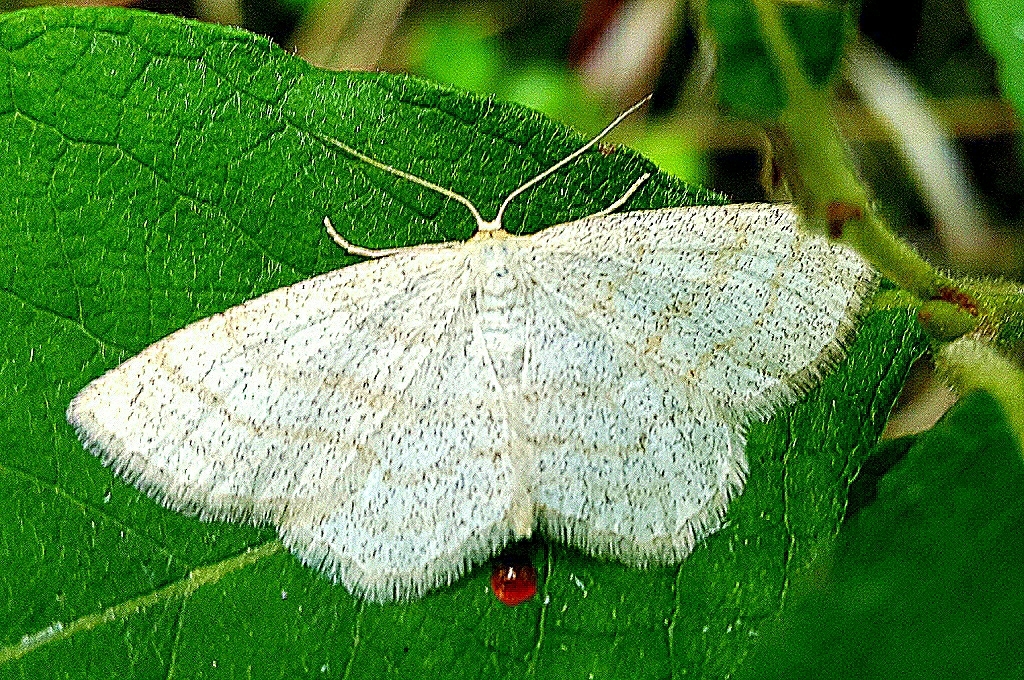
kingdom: Animalia
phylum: Arthropoda
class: Insecta
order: Lepidoptera
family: Geometridae
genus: Scopula
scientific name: Scopula ternata
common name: Smoky wave
